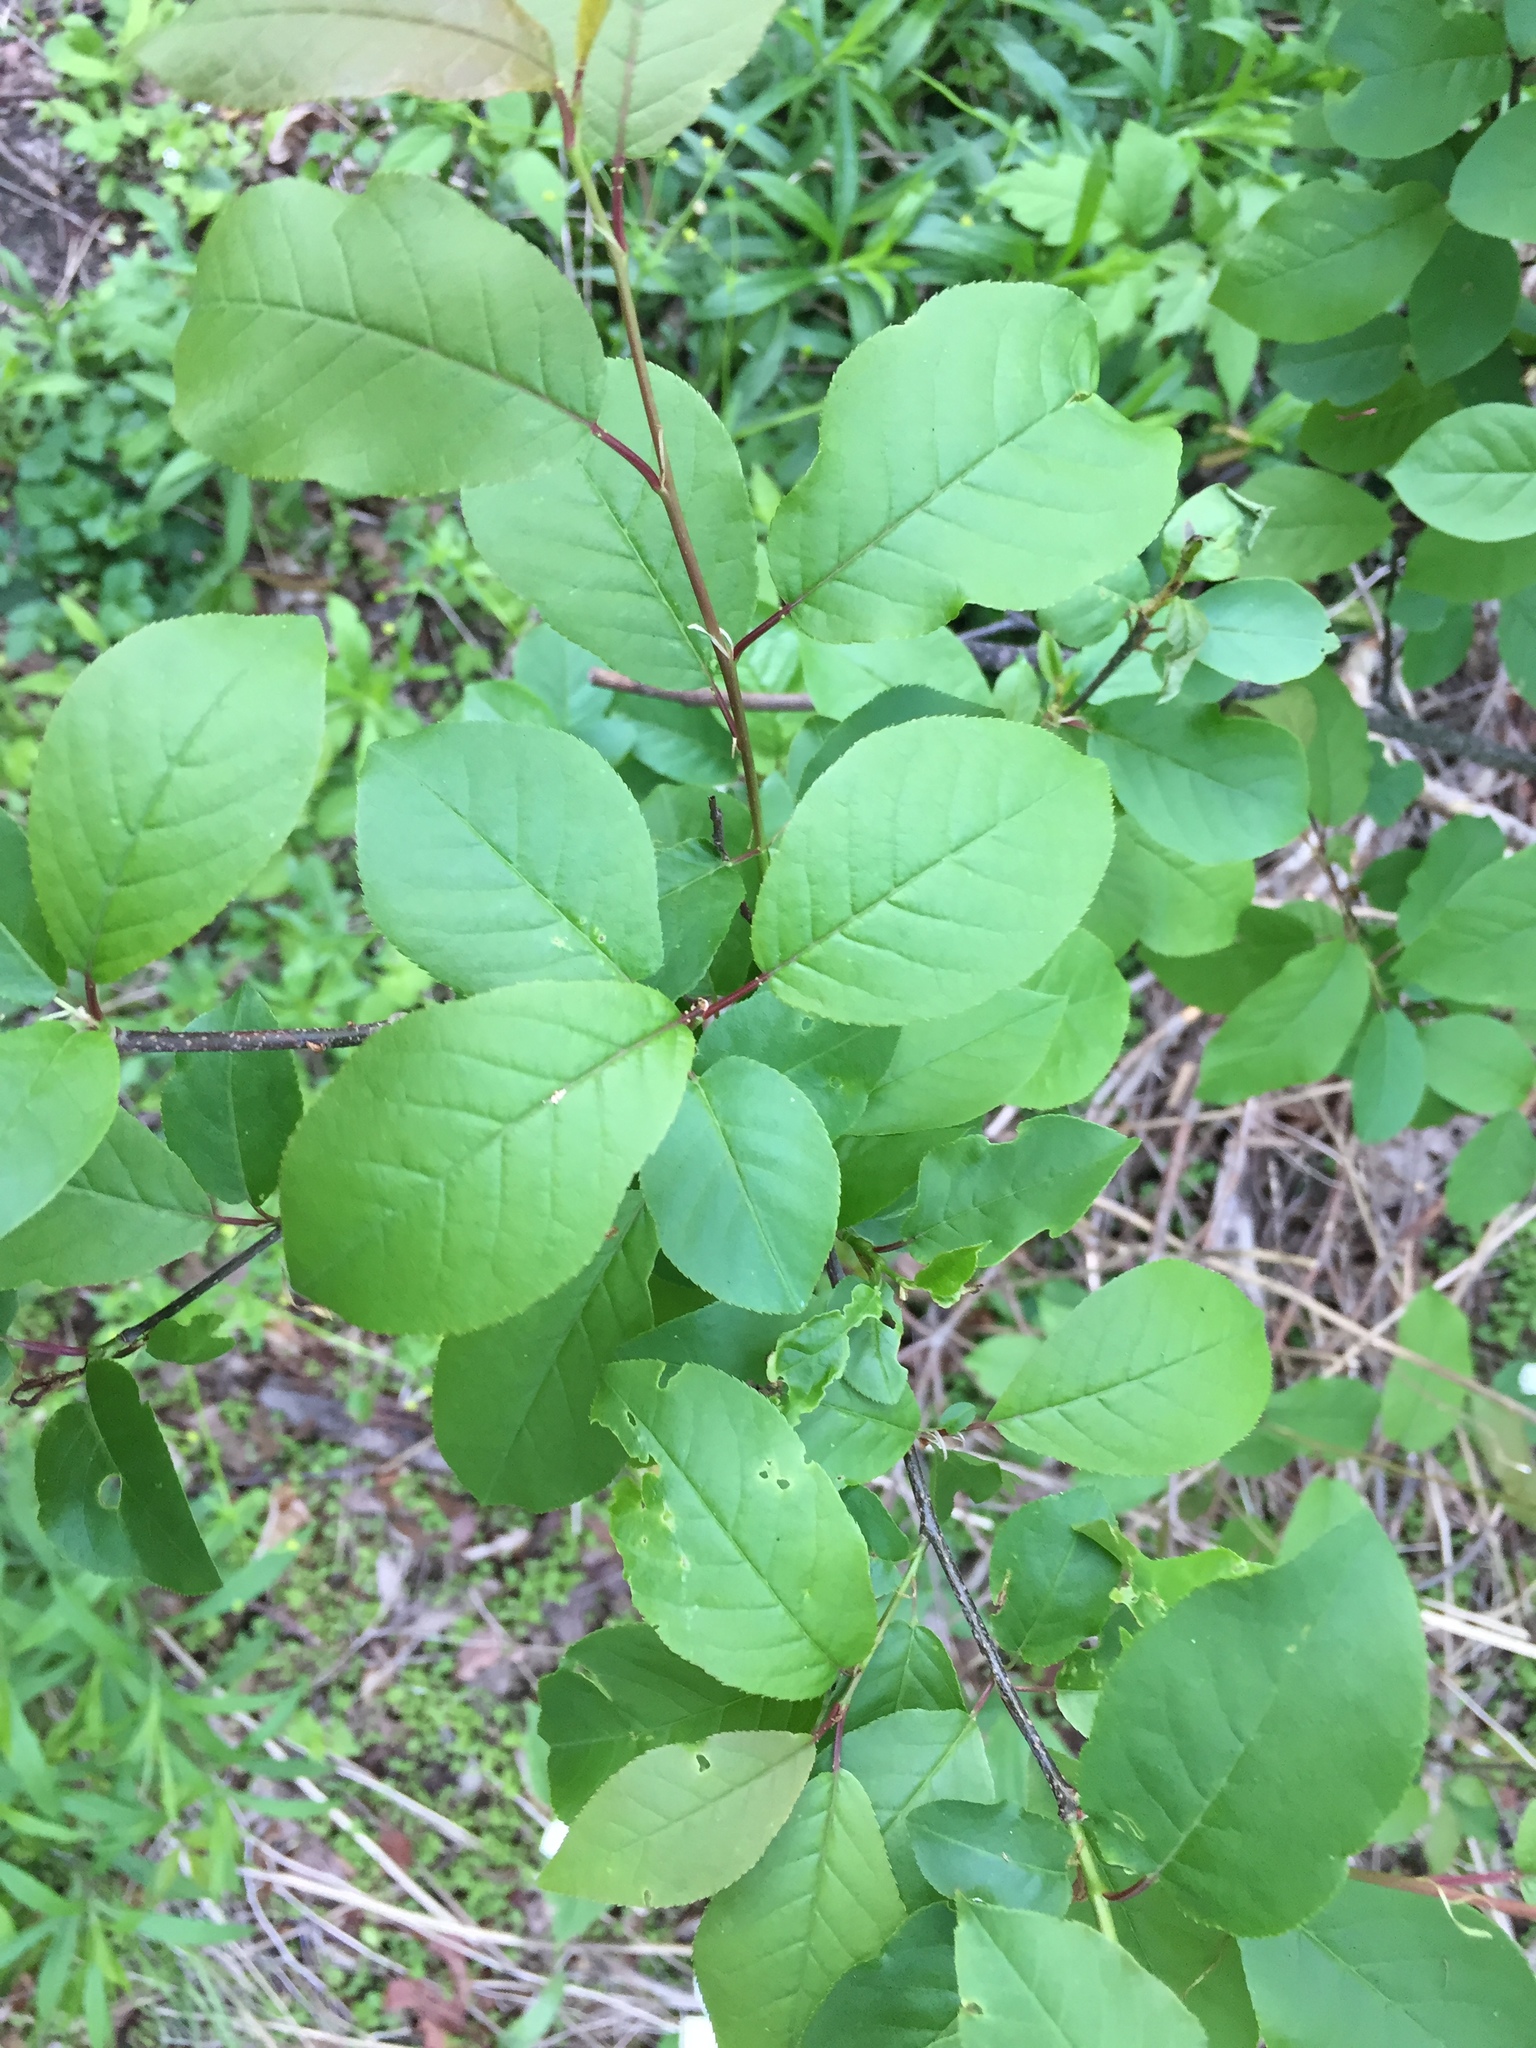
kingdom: Plantae
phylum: Tracheophyta
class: Magnoliopsida
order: Rosales
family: Rosaceae
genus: Prunus
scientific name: Prunus virginiana
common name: Chokecherry
